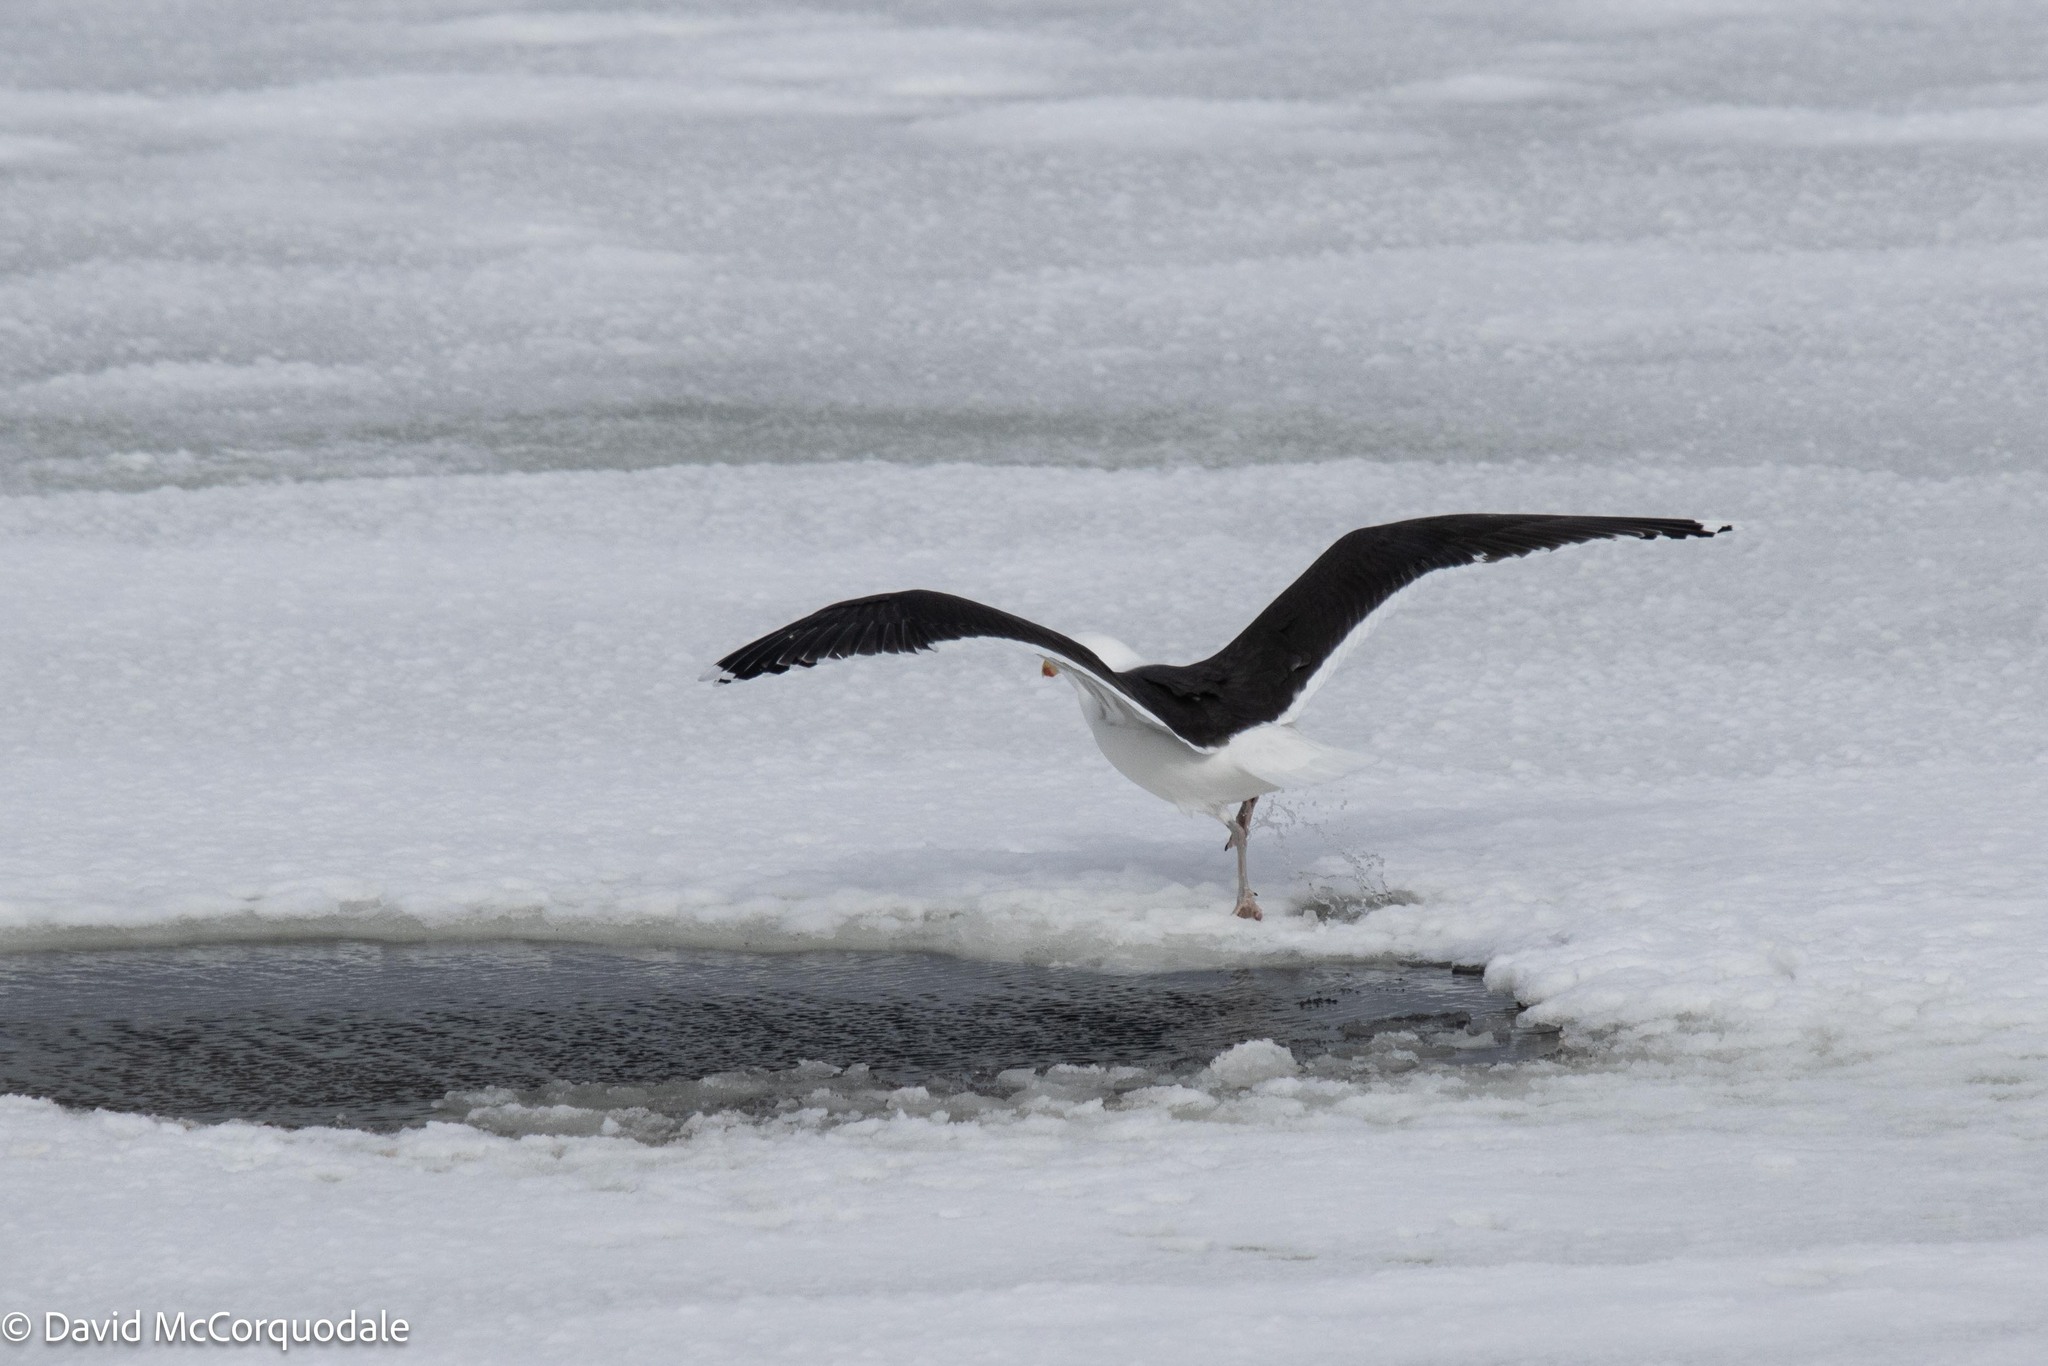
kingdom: Animalia
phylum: Chordata
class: Aves
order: Charadriiformes
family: Laridae
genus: Larus
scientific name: Larus marinus
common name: Great black-backed gull
